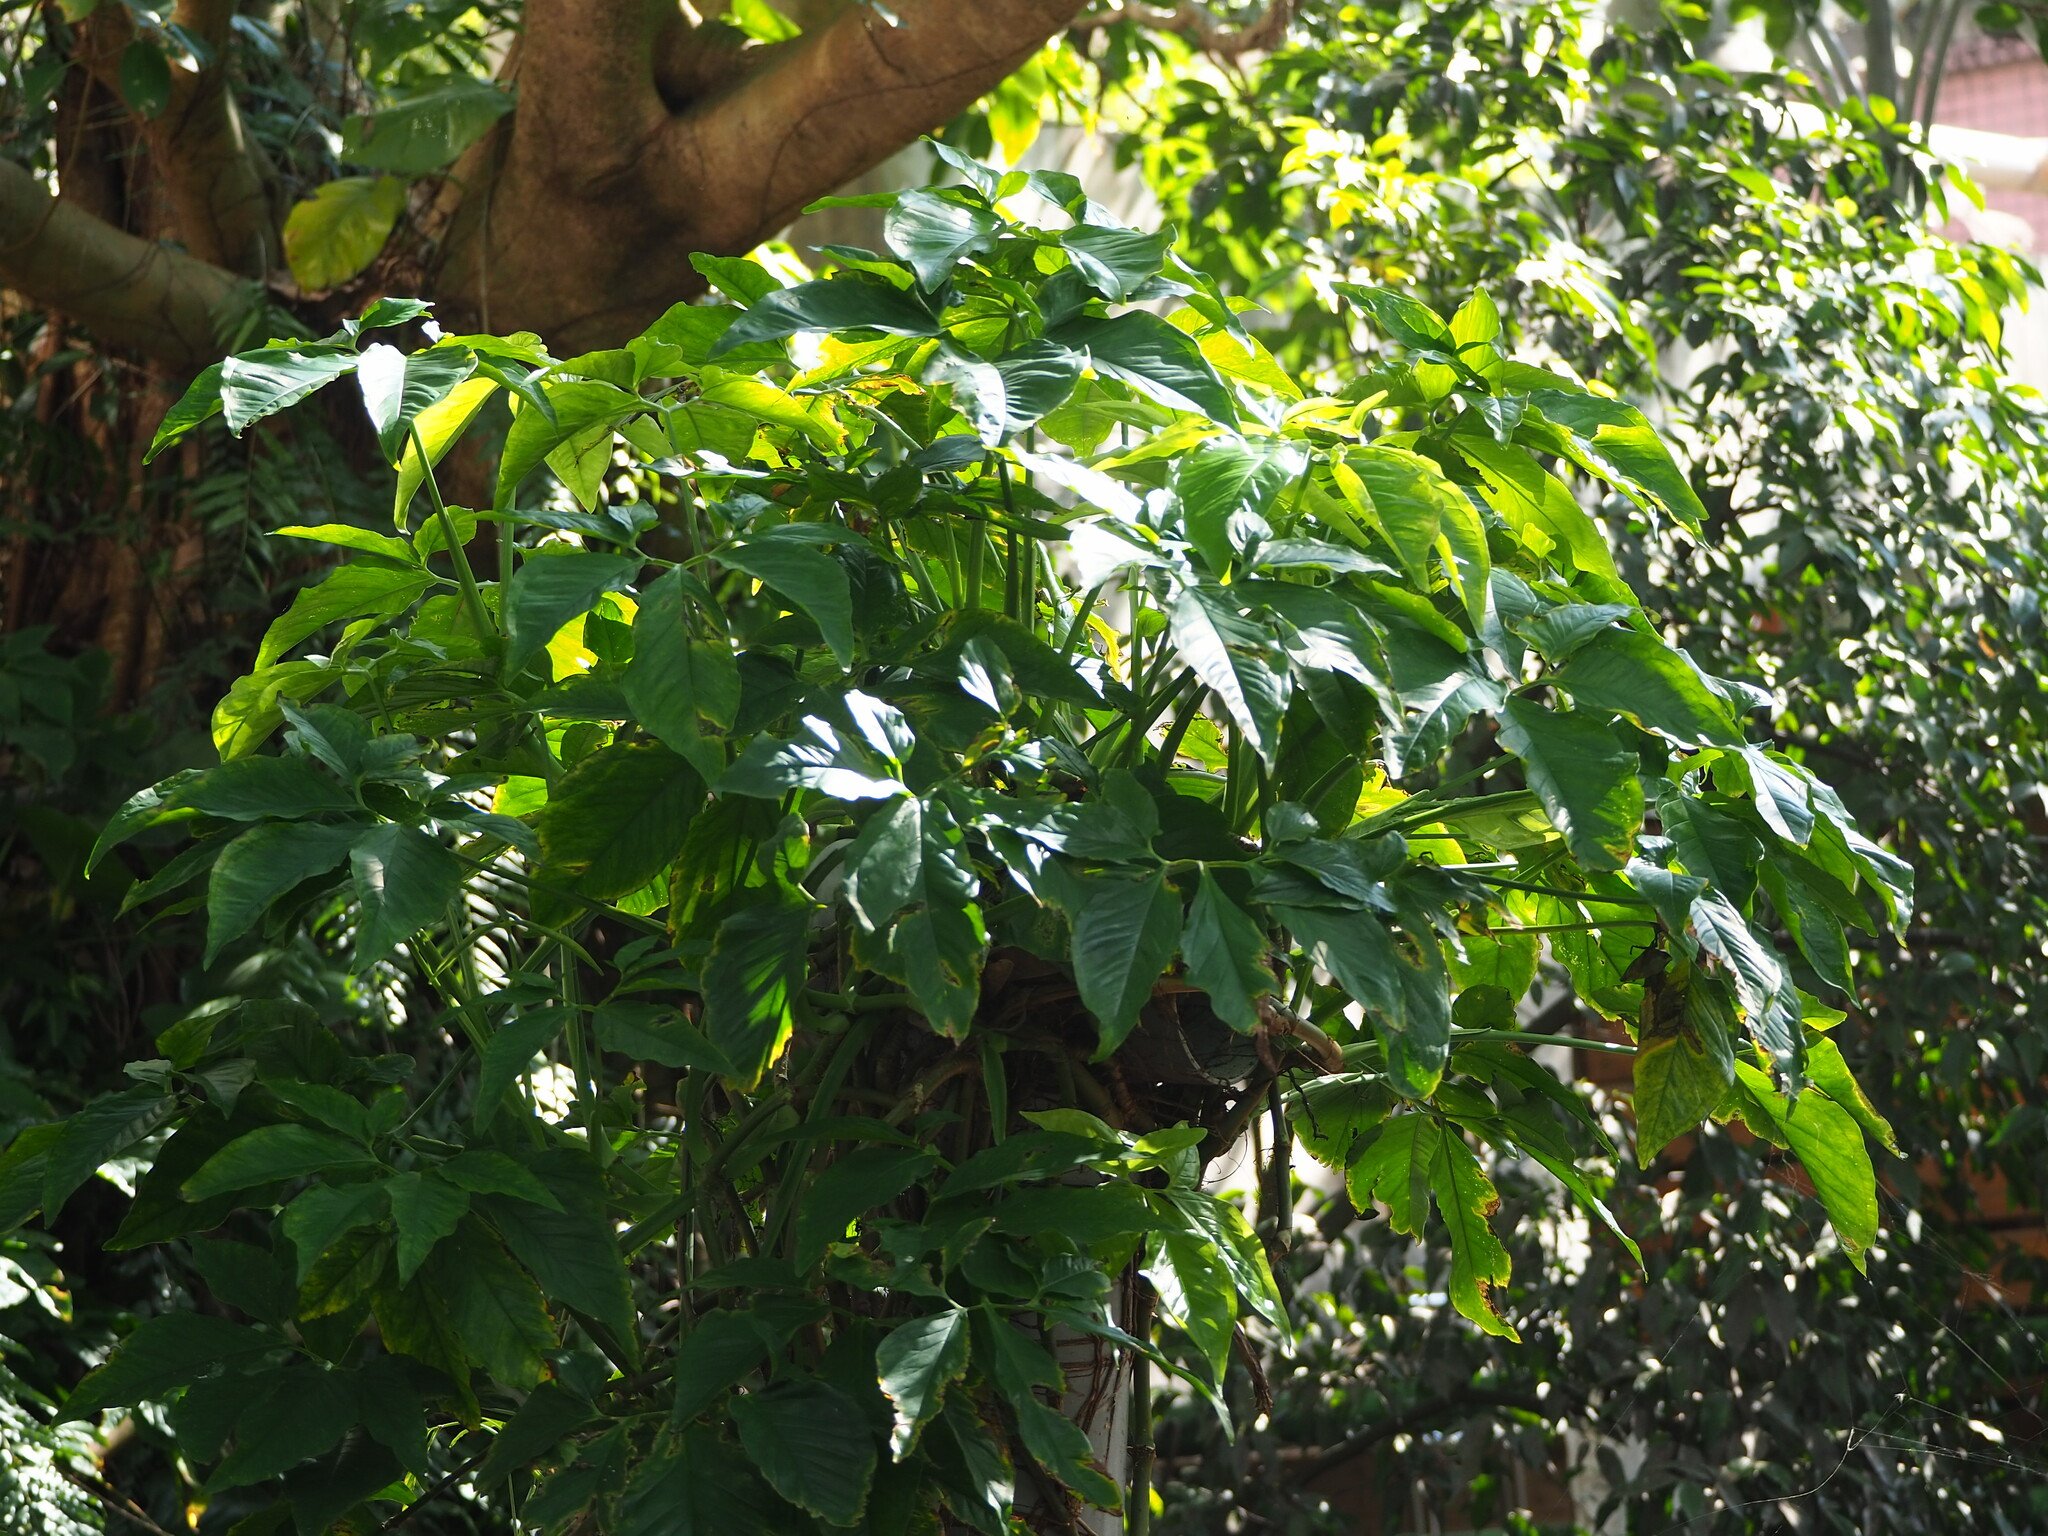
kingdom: Plantae
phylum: Tracheophyta
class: Liliopsida
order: Alismatales
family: Araceae
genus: Syngonium
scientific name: Syngonium angustatum
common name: Fivefingers
